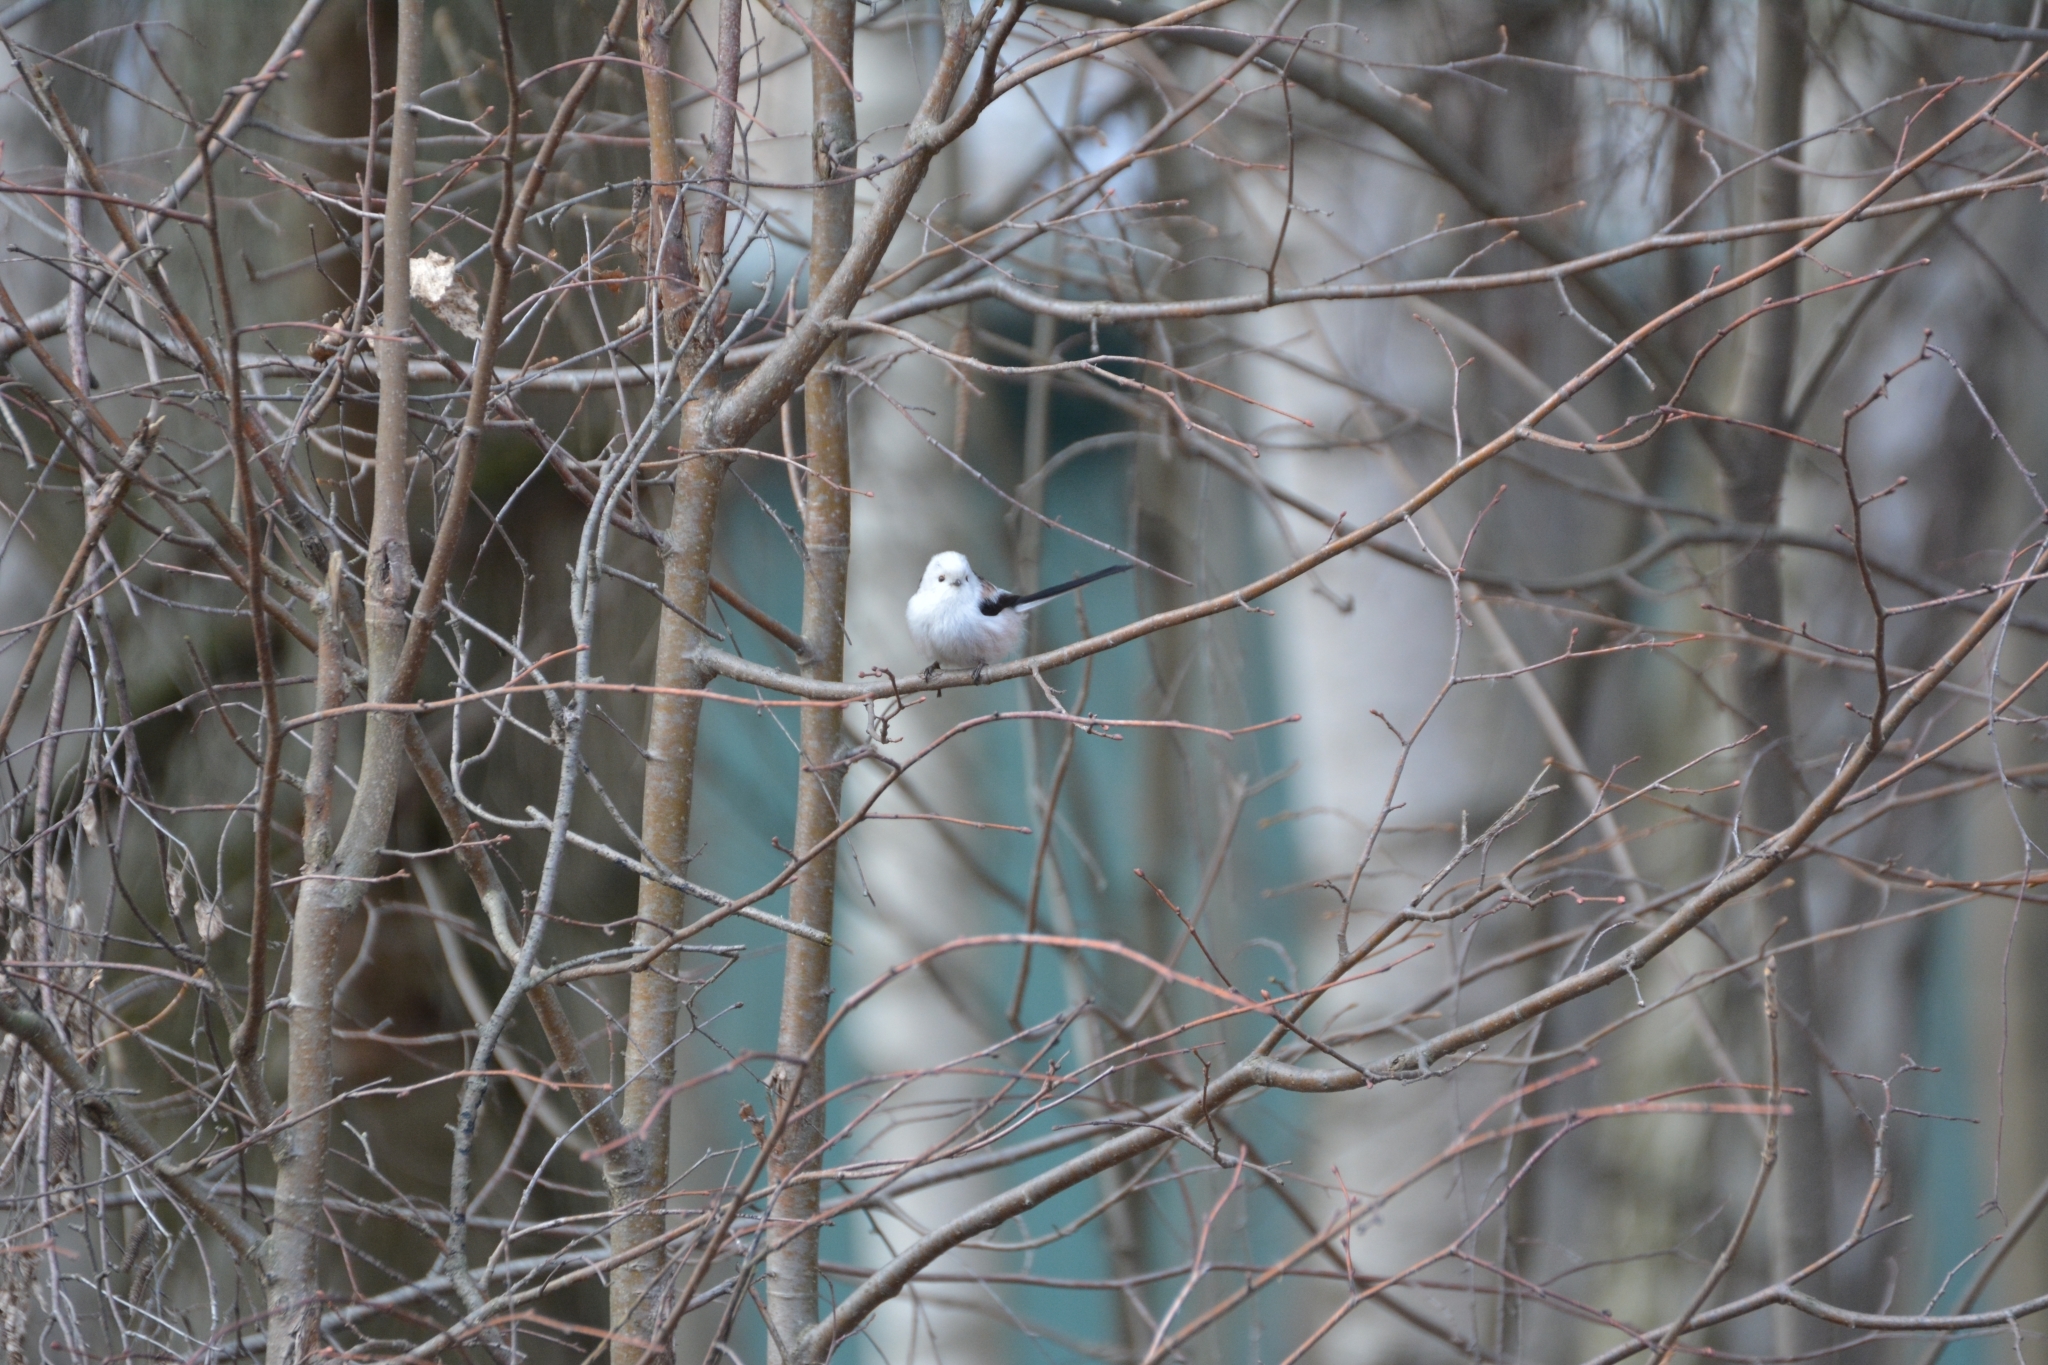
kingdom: Animalia
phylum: Chordata
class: Aves
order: Passeriformes
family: Aegithalidae
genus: Aegithalos
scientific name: Aegithalos caudatus
